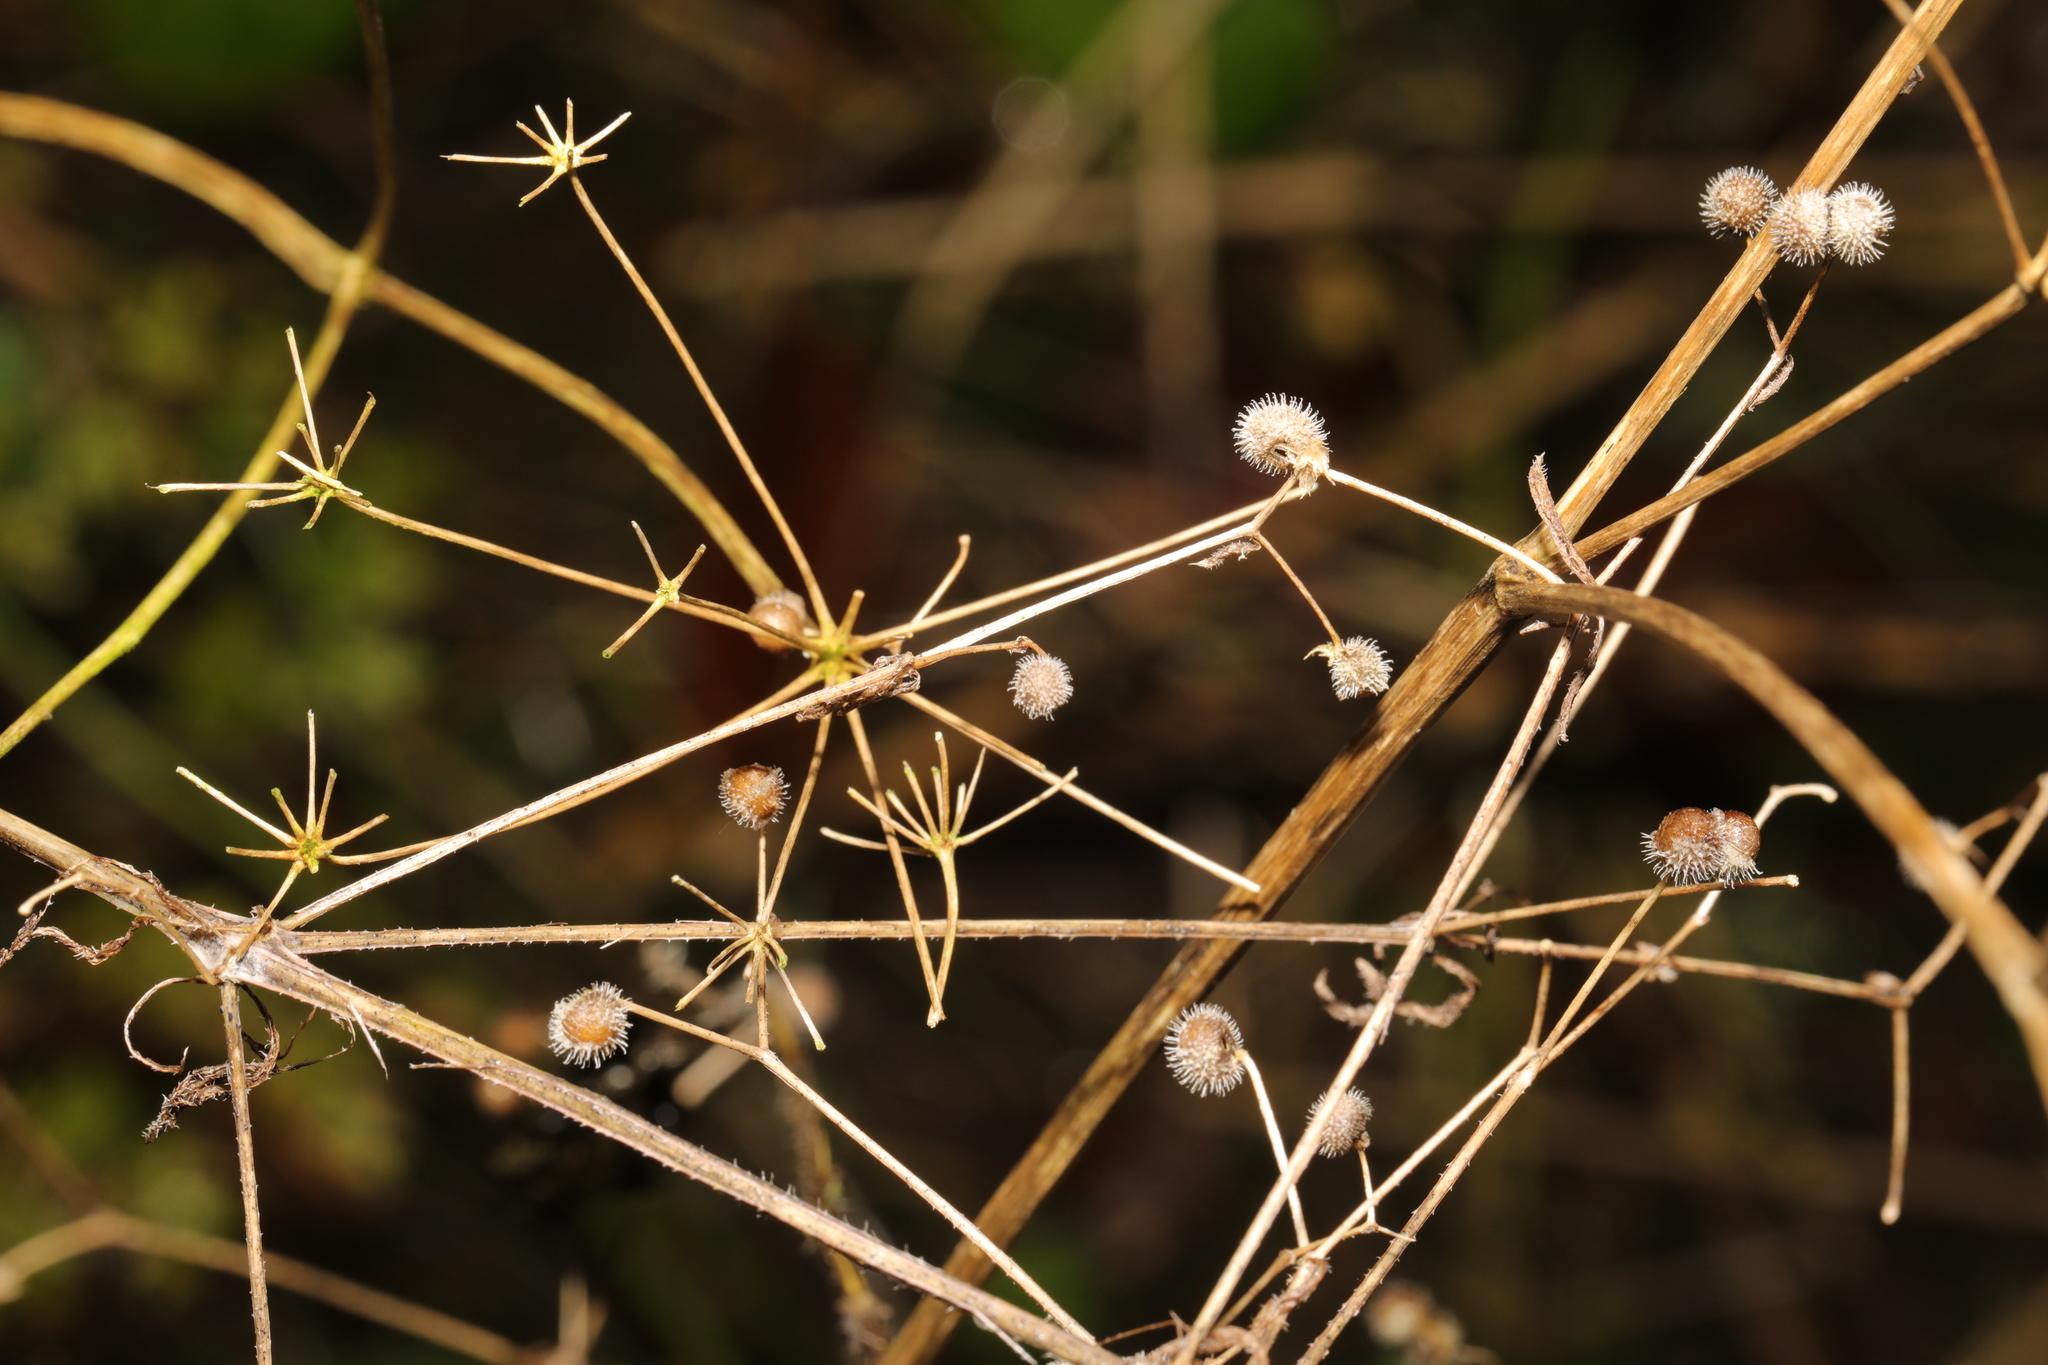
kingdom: Plantae
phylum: Tracheophyta
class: Magnoliopsida
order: Gentianales
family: Rubiaceae
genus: Galium
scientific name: Galium aparine
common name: Cleavers
